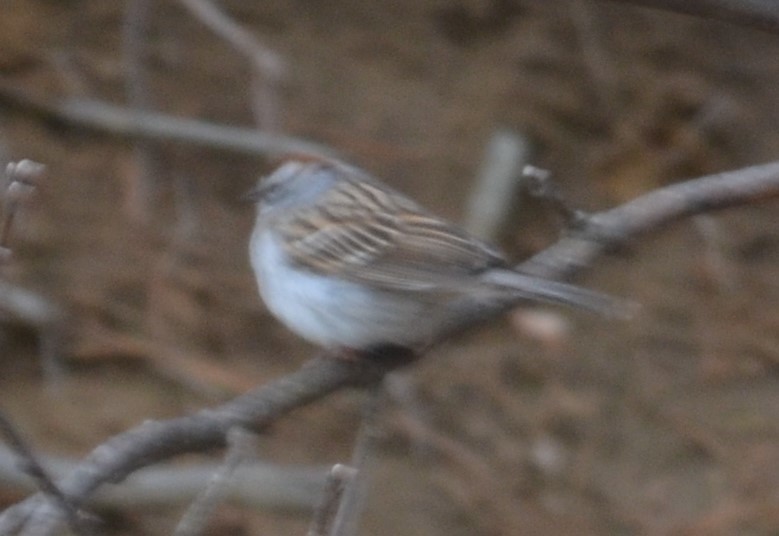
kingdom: Animalia
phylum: Chordata
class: Aves
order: Passeriformes
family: Passerellidae
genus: Spizella
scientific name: Spizella passerina
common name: Chipping sparrow
